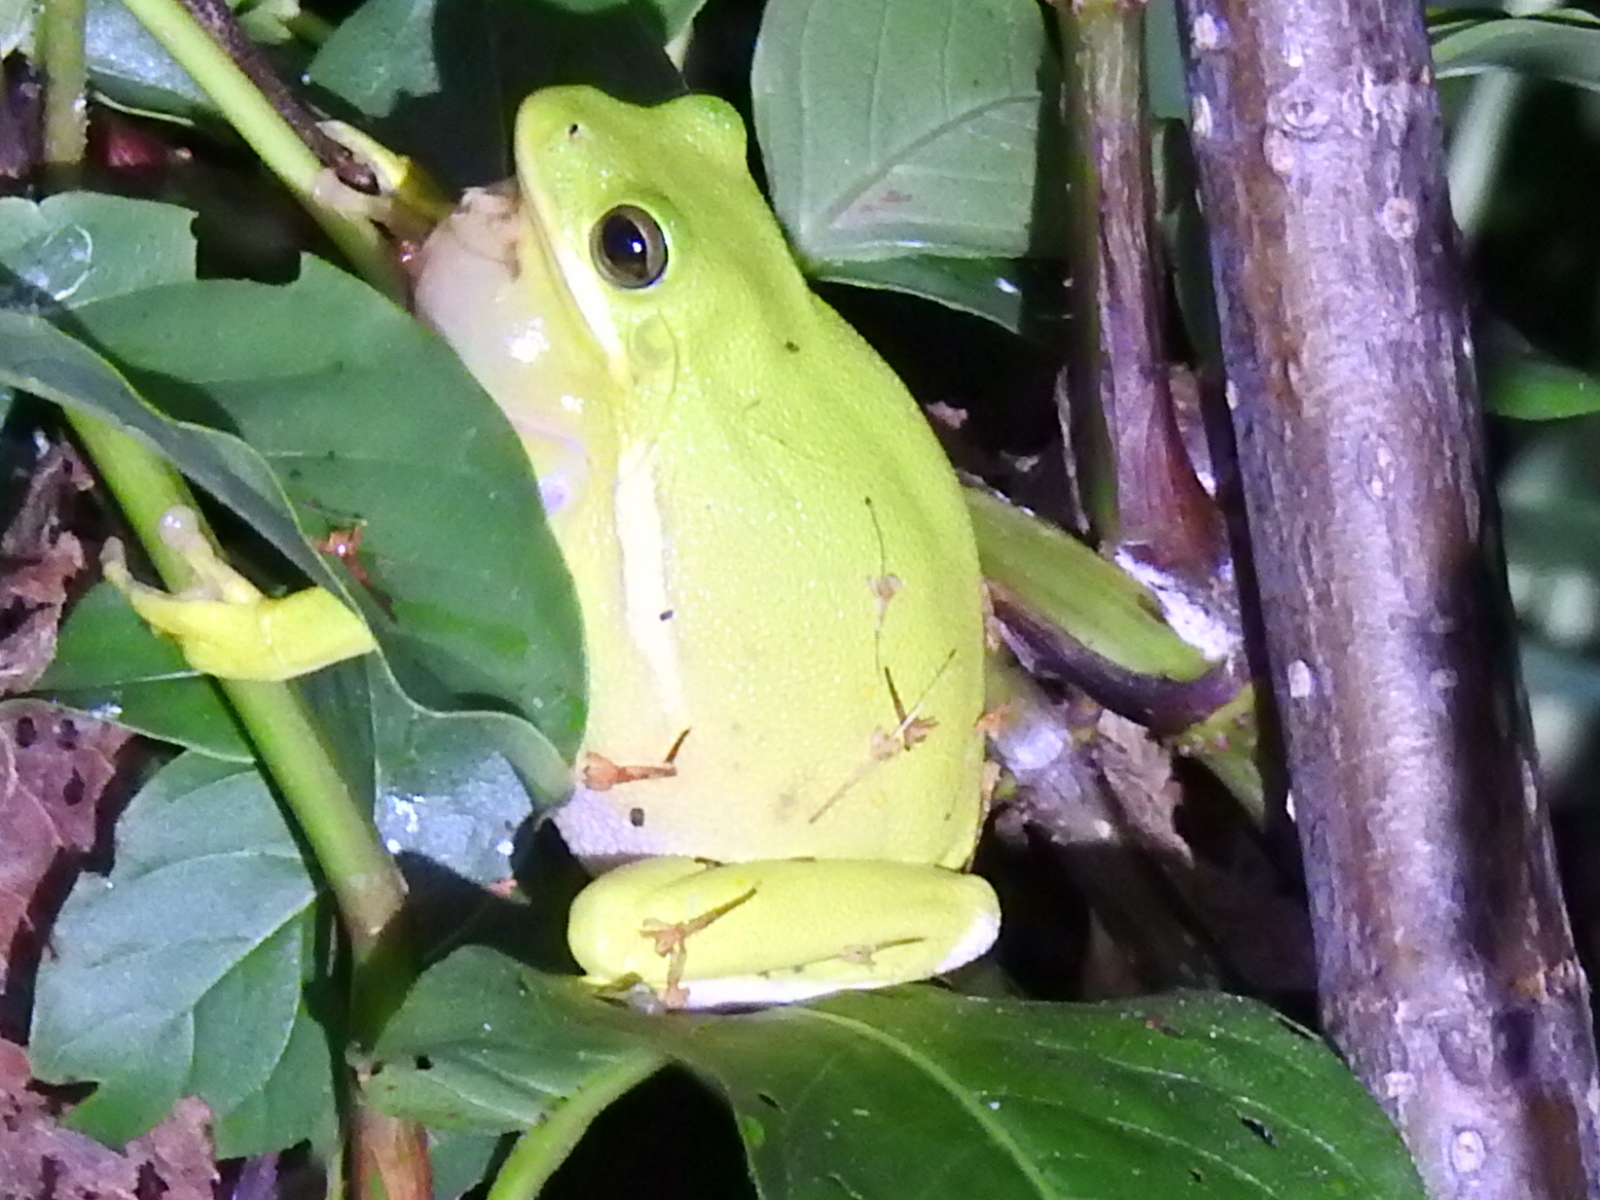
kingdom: Animalia
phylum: Chordata
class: Amphibia
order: Anura
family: Hylidae
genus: Dryophytes
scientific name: Dryophytes cinereus
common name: Green treefrog
